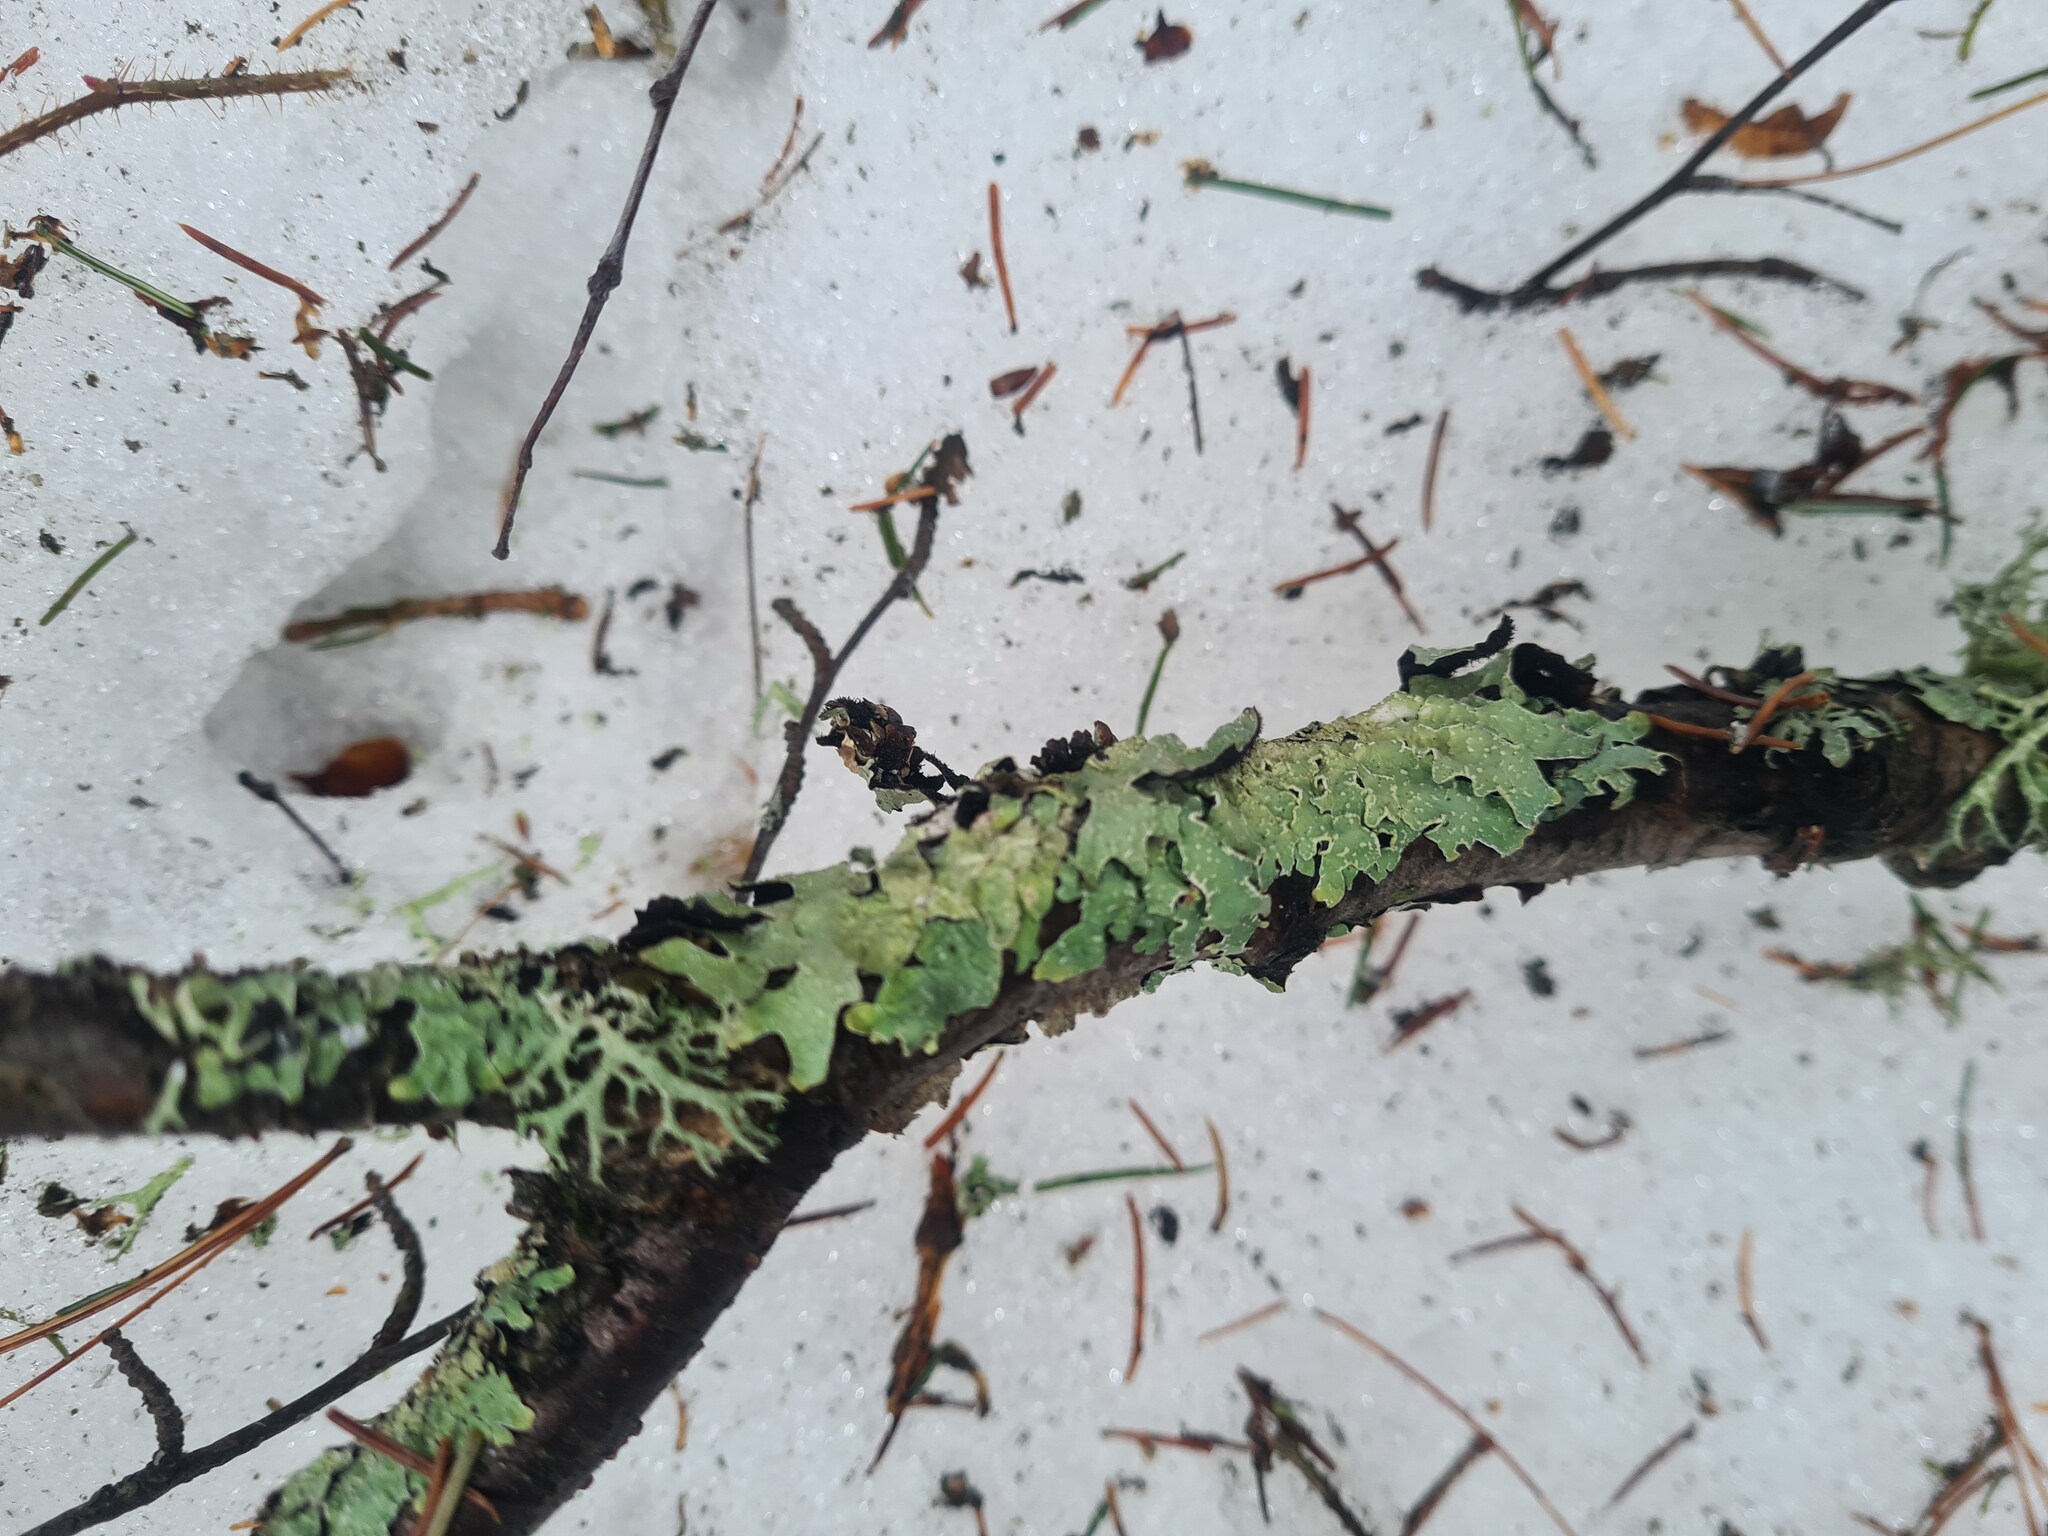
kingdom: Fungi
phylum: Ascomycota
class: Lecanoromycetes
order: Lecanorales
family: Parmeliaceae
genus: Parmelia
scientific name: Parmelia sulcata
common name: Netted shield lichen
